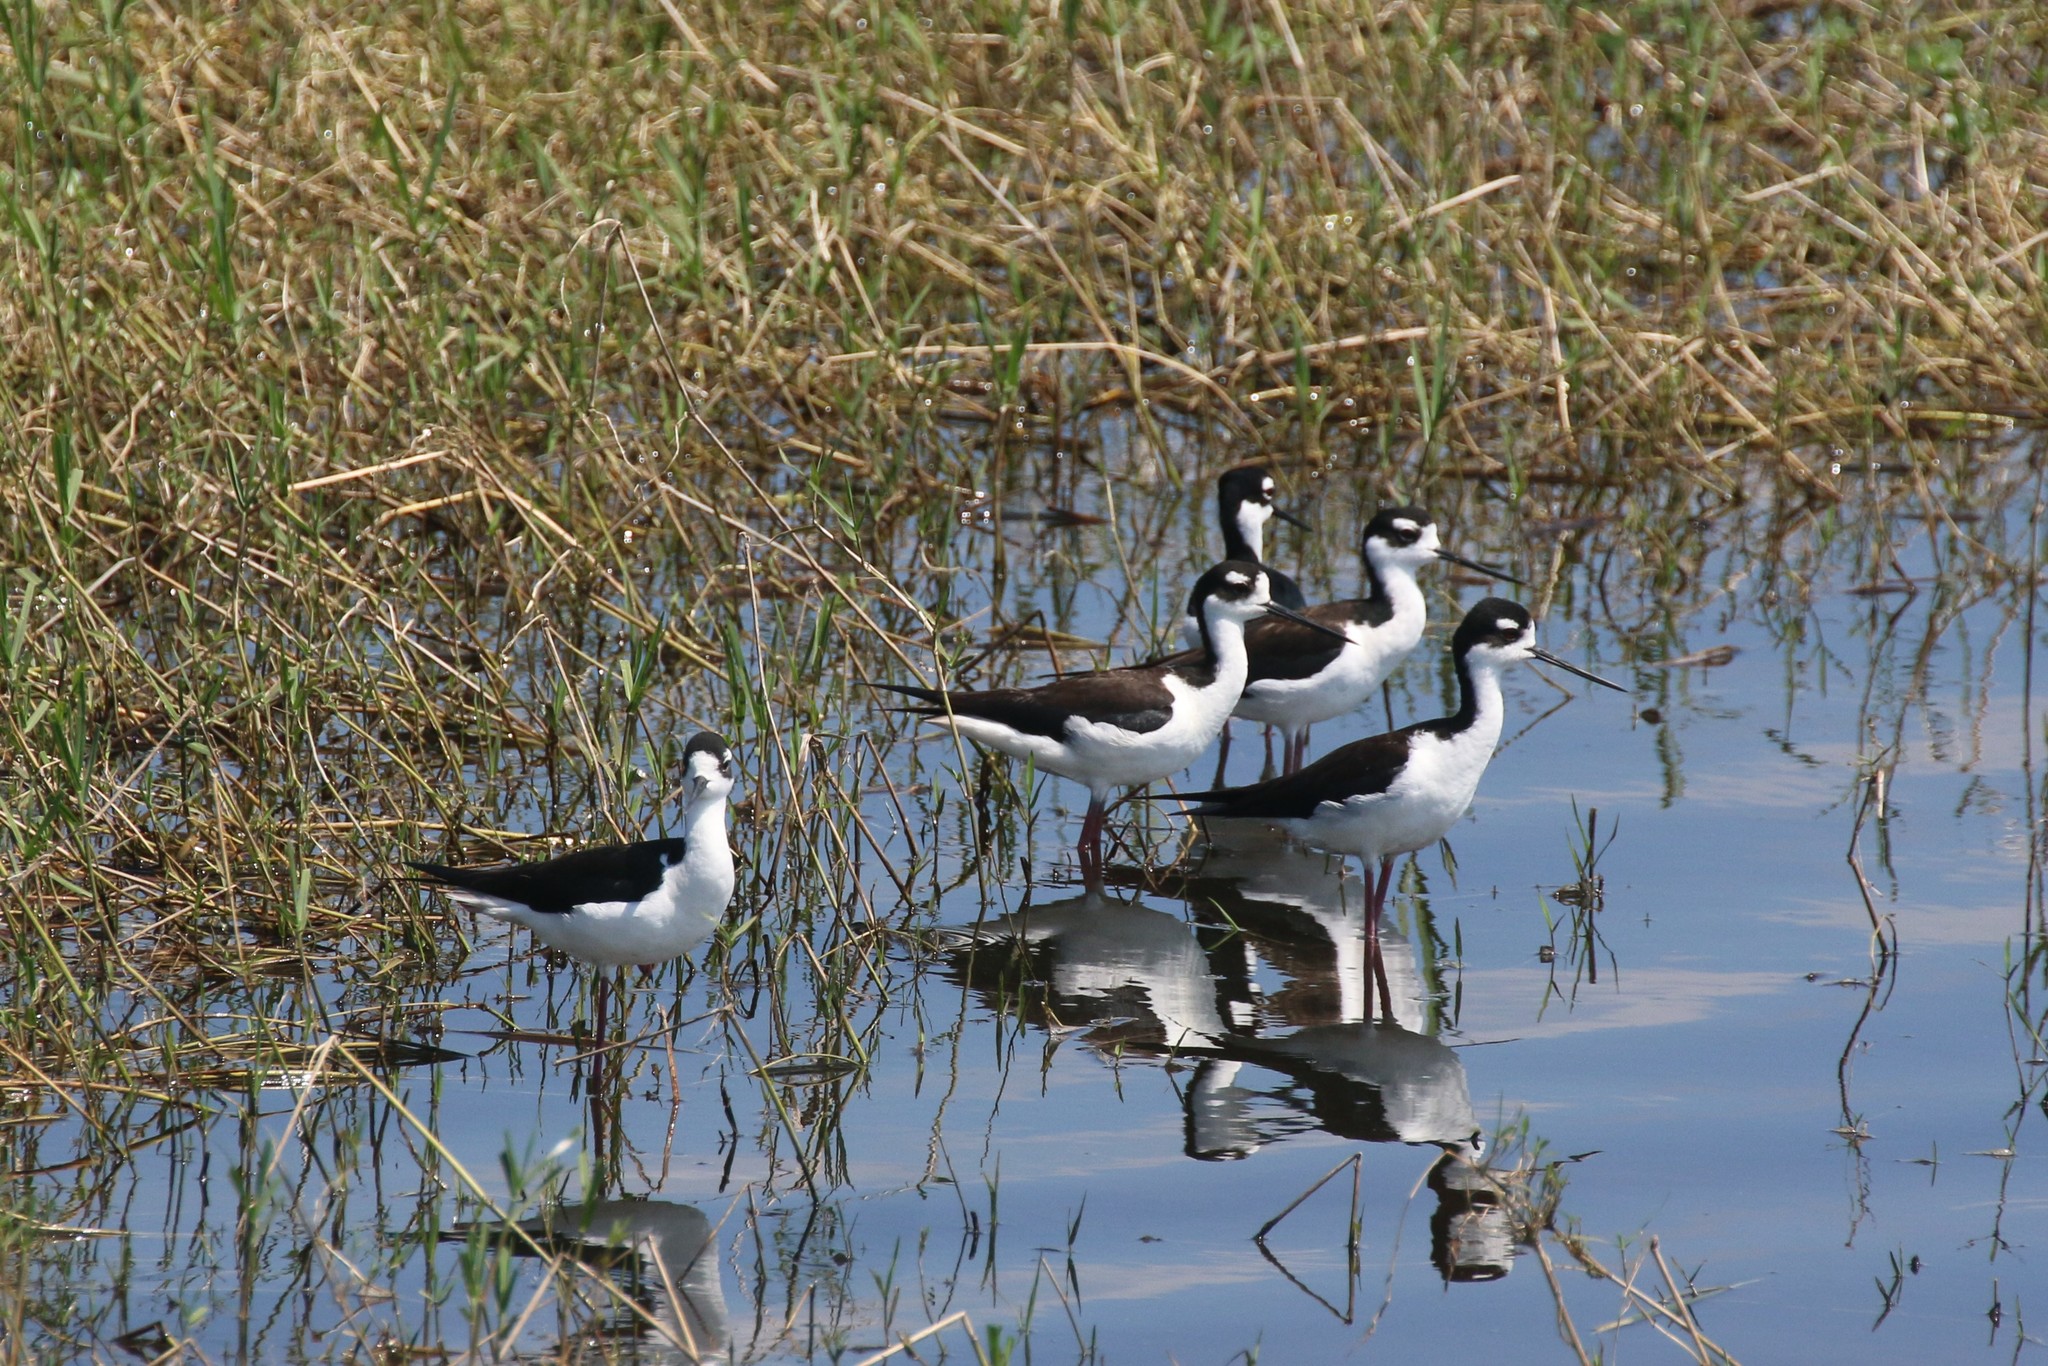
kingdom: Animalia
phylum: Chordata
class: Aves
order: Charadriiformes
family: Recurvirostridae
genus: Himantopus
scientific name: Himantopus mexicanus
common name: Black-necked stilt
